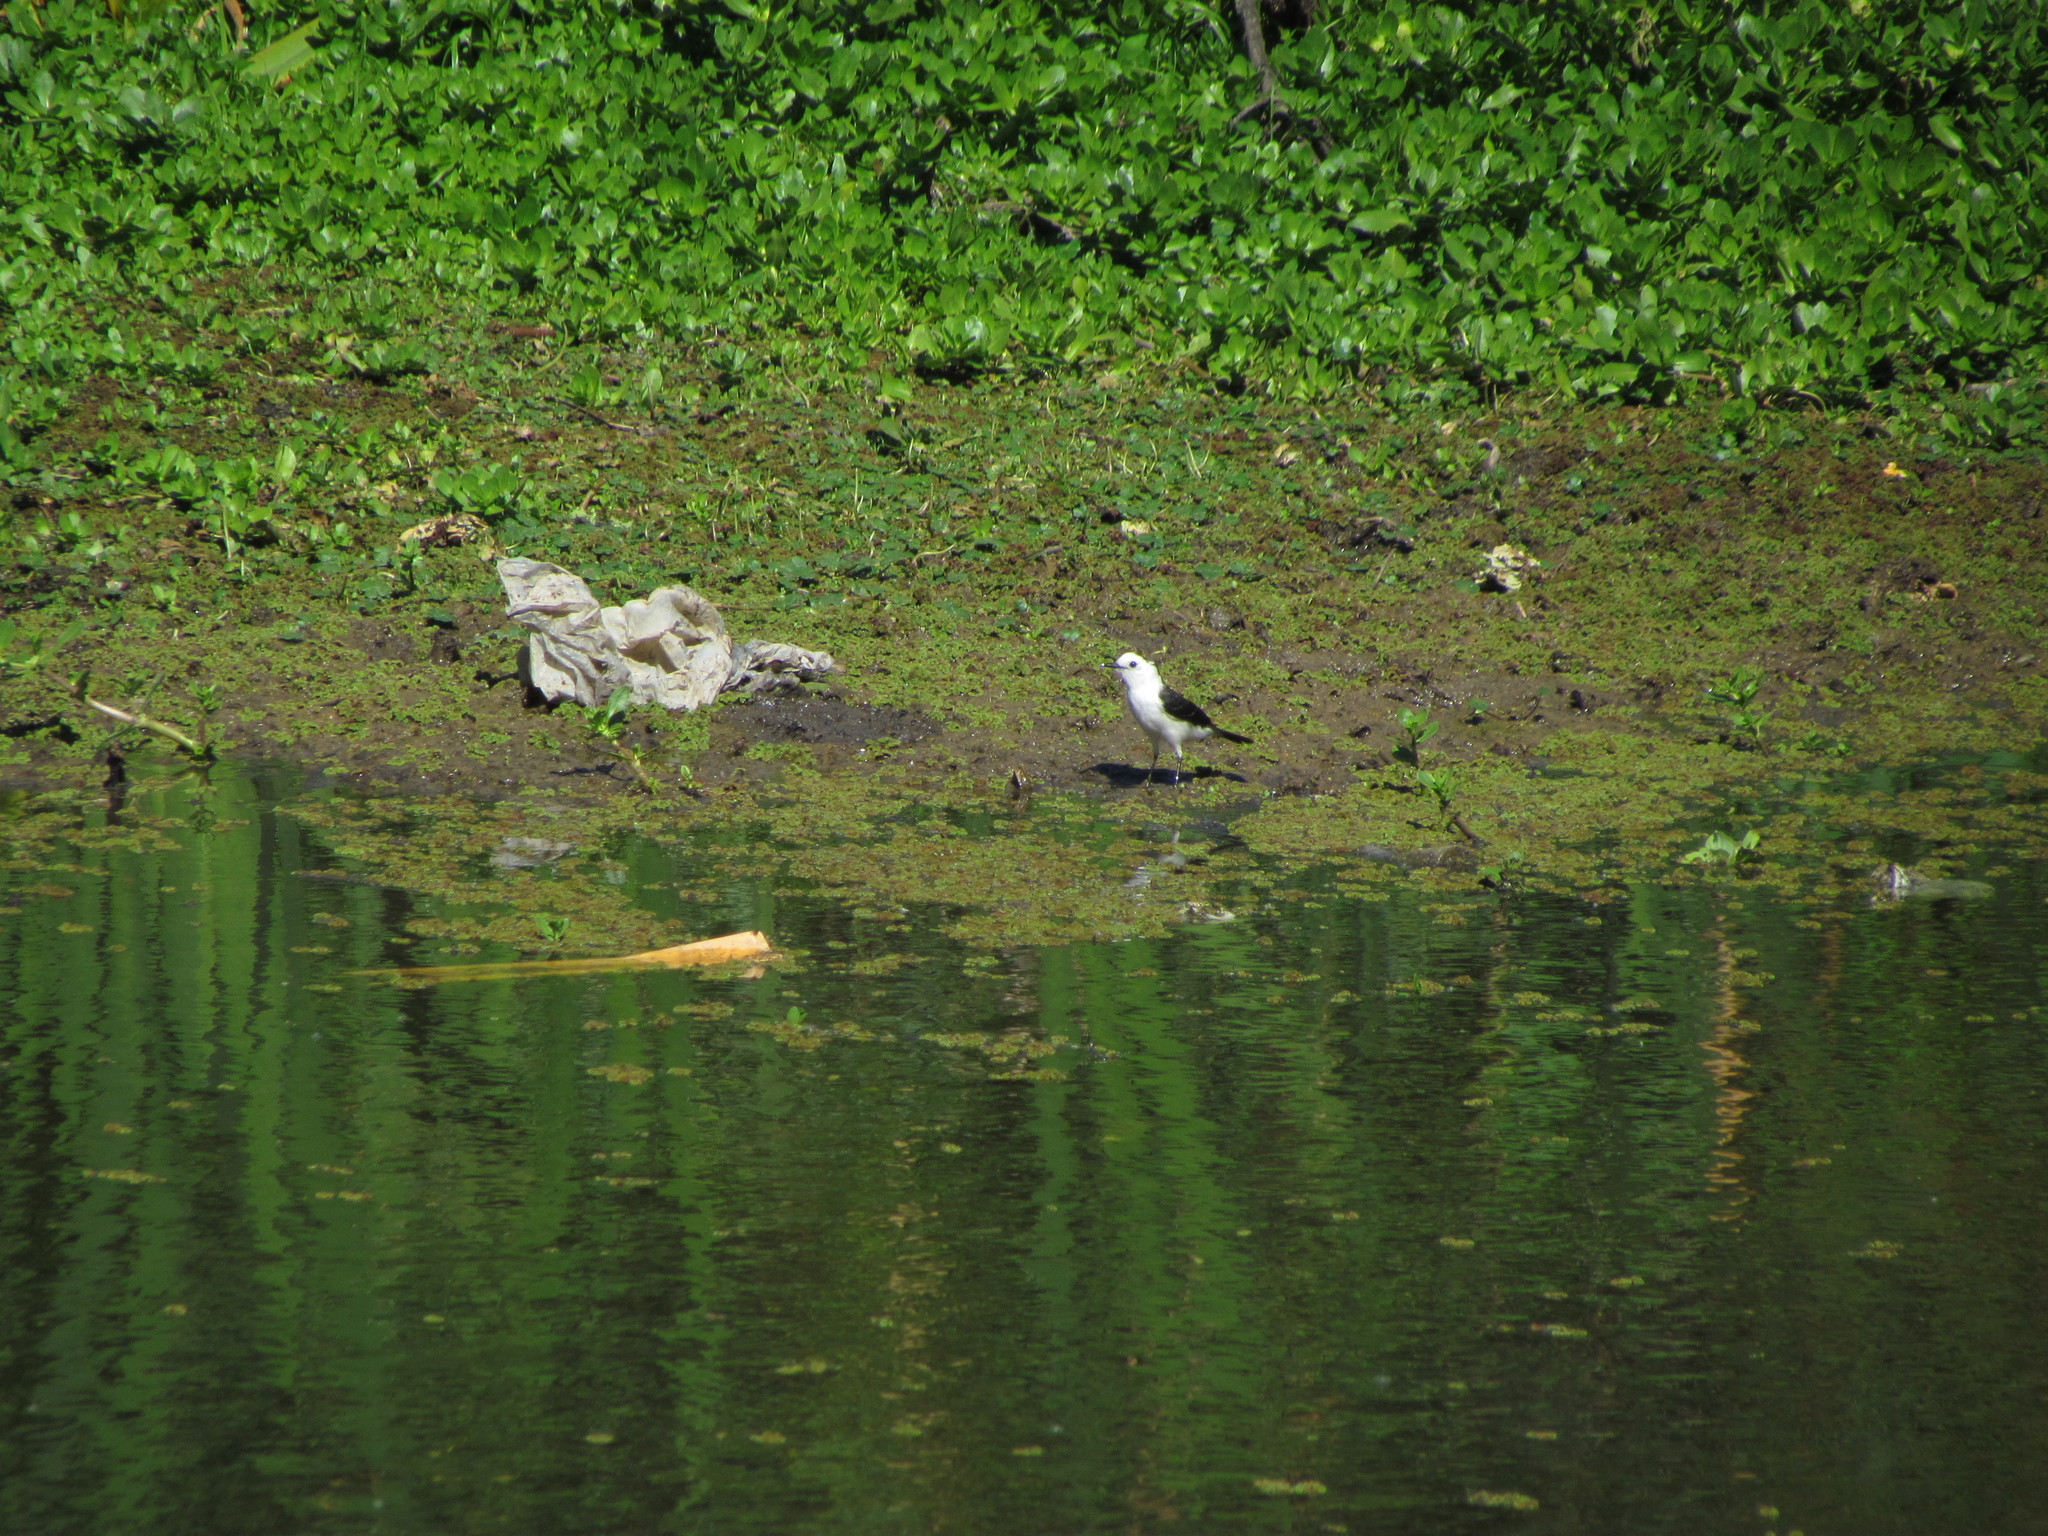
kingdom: Animalia
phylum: Chordata
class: Aves
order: Passeriformes
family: Tyrannidae
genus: Fluvicola
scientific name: Fluvicola pica
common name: Pied water-tyrant
